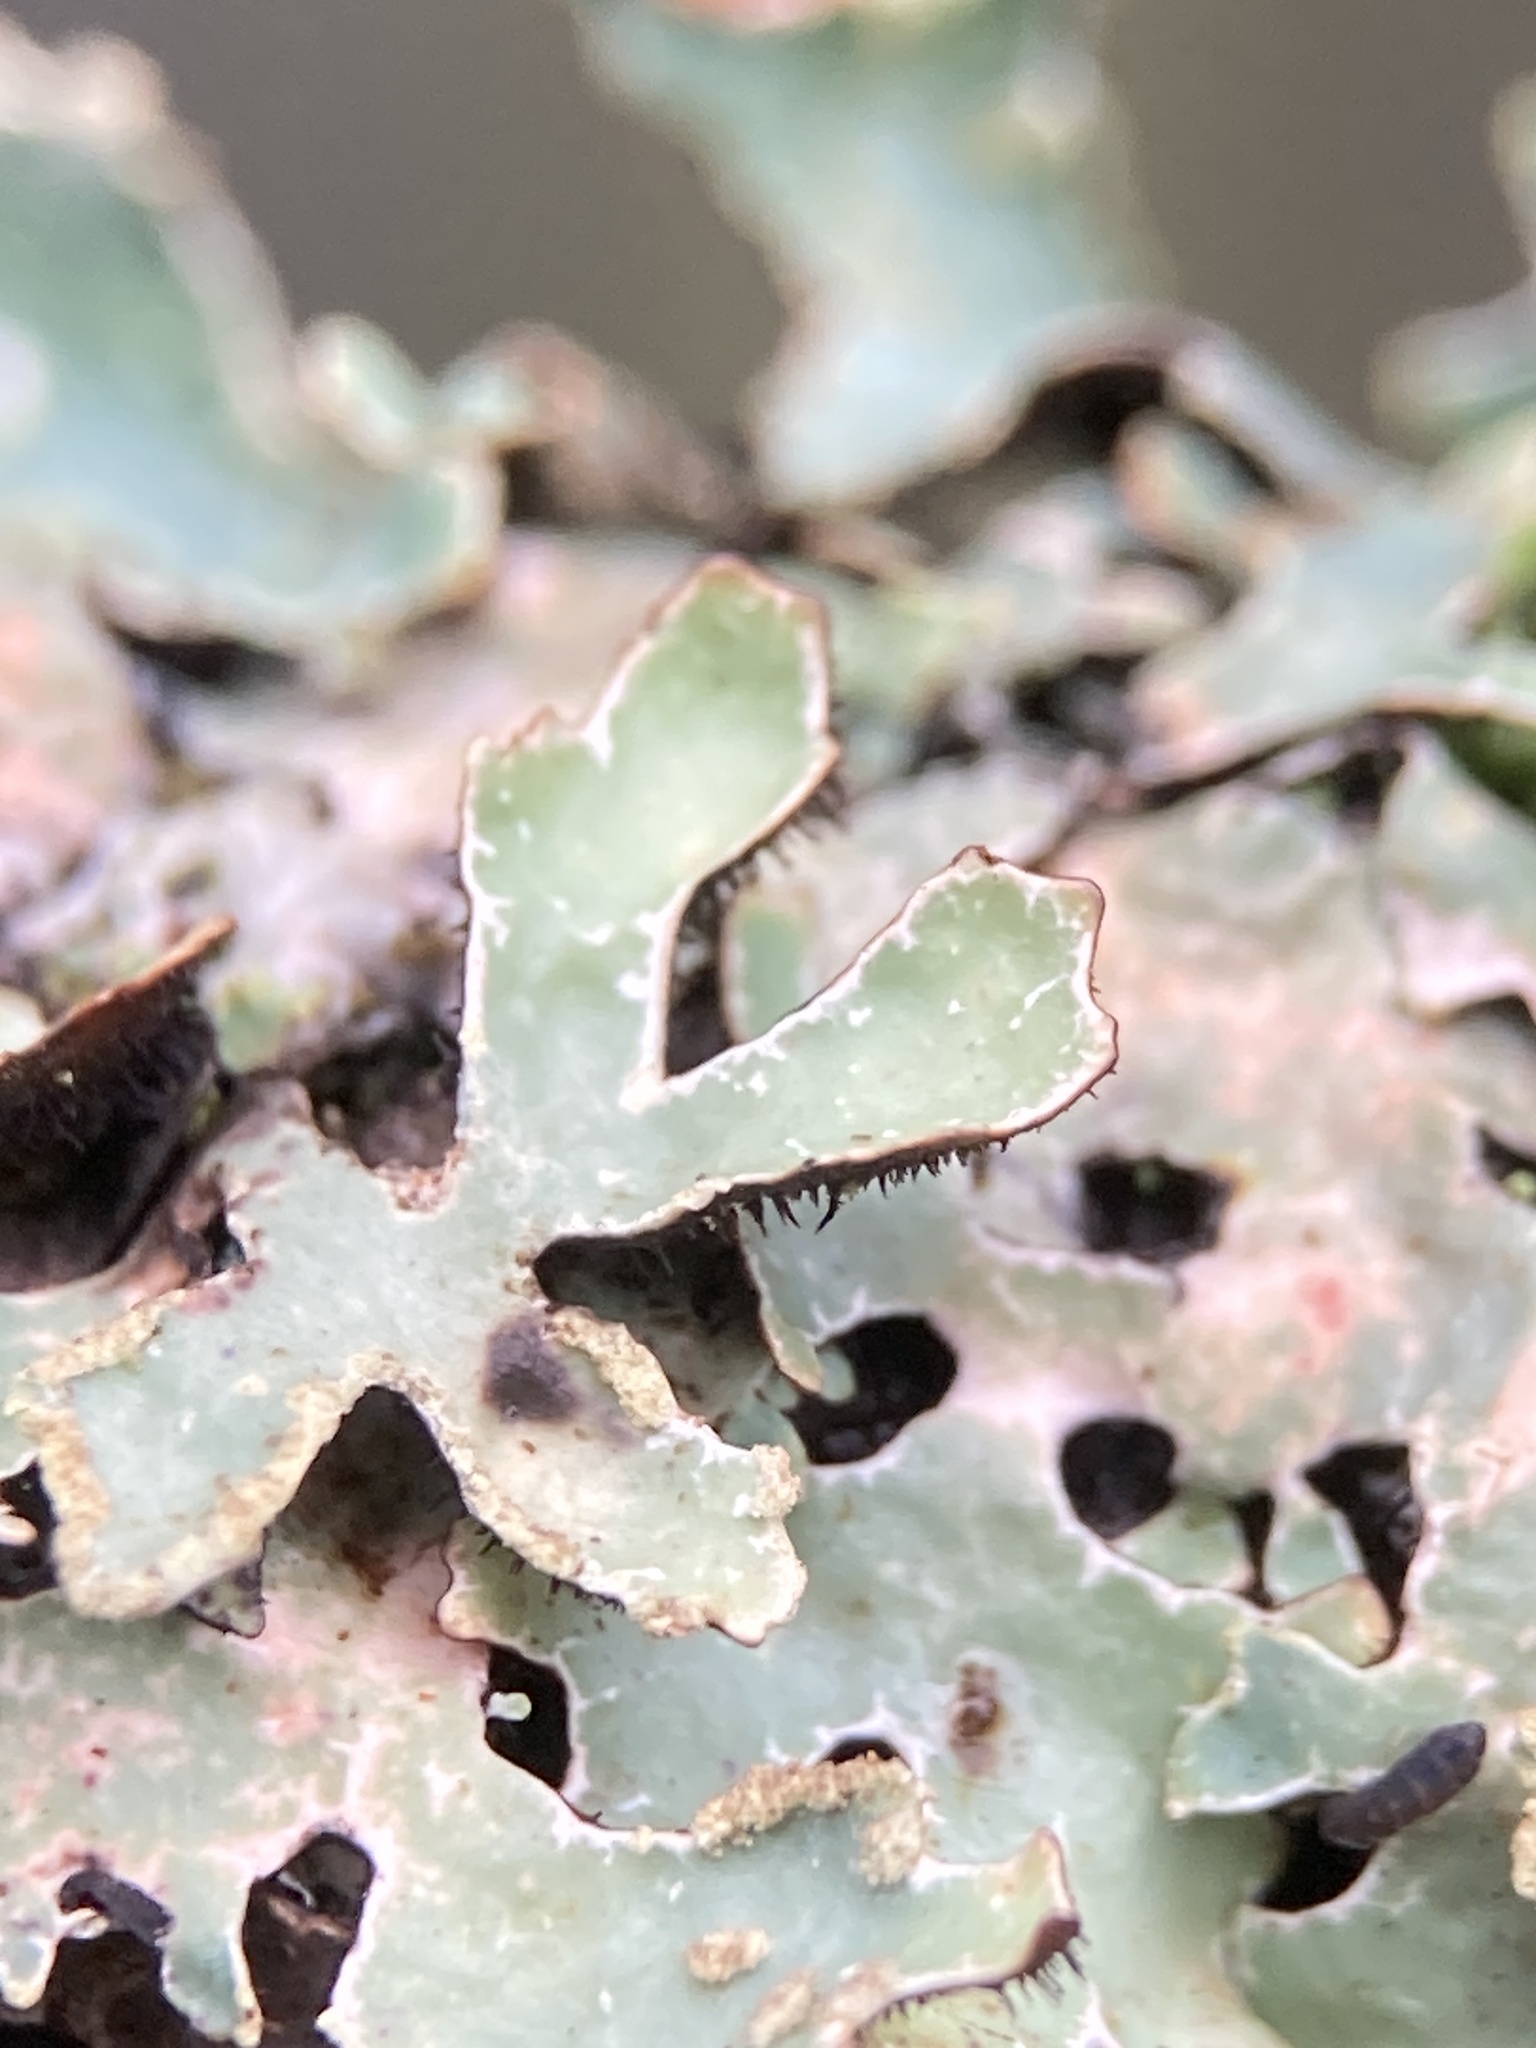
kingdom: Fungi
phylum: Ascomycota
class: Lecanoromycetes
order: Lecanorales
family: Parmeliaceae
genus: Parmelia
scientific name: Parmelia sulcata
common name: Netted shield lichen
